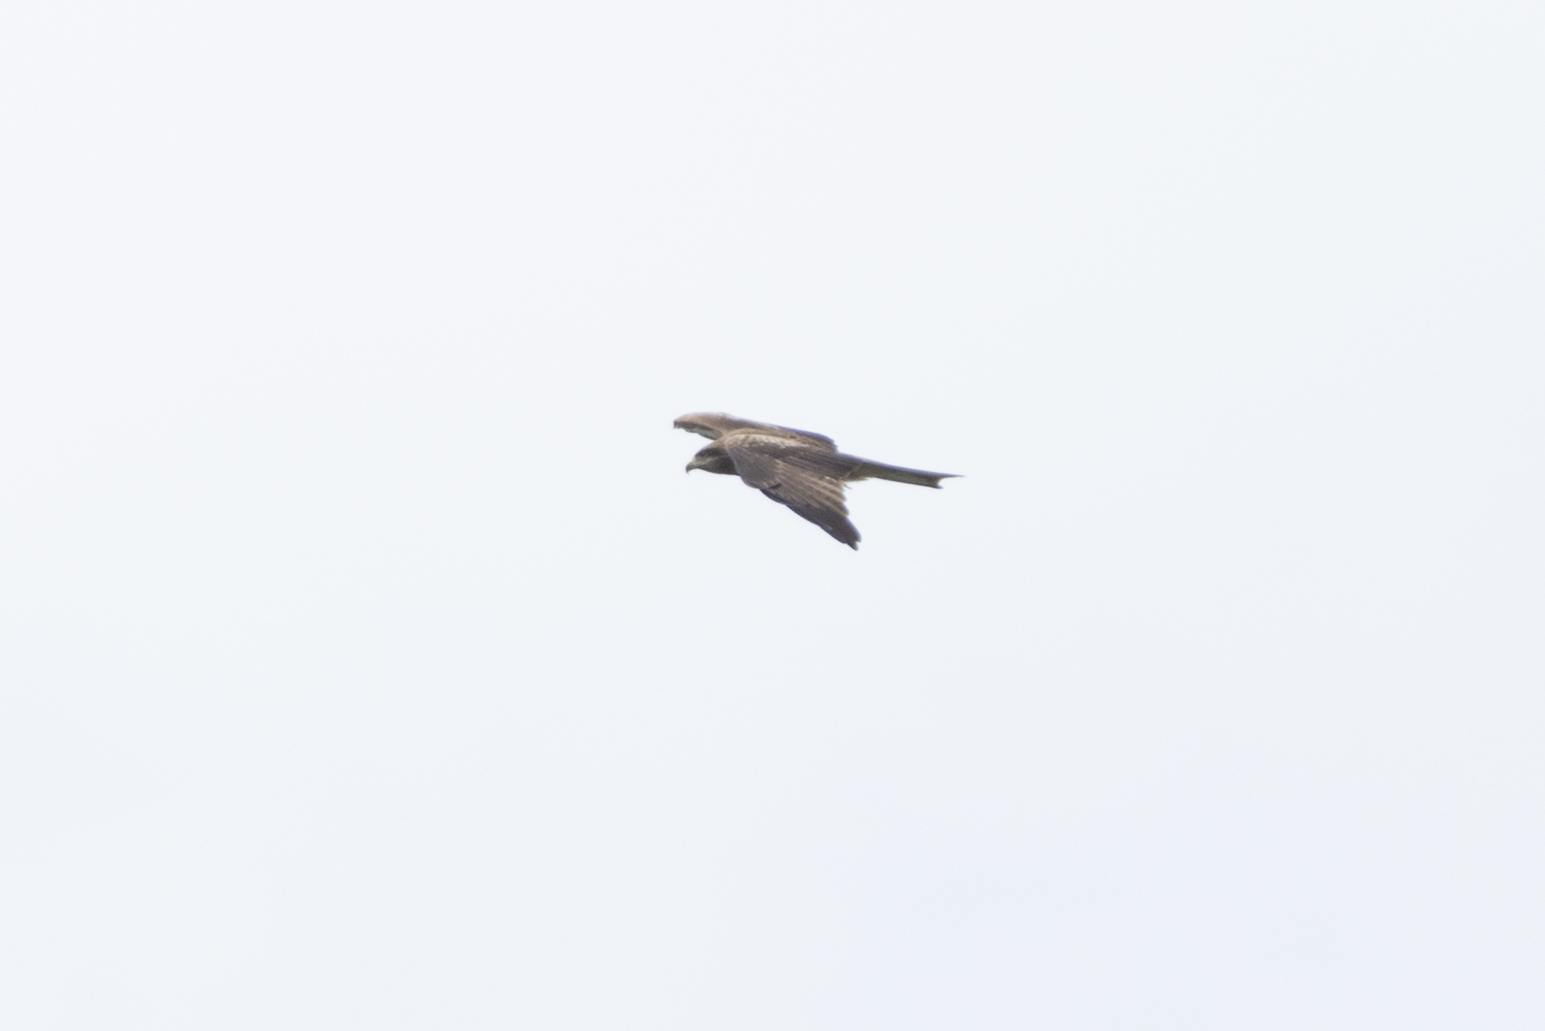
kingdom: Animalia
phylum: Chordata
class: Aves
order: Accipitriformes
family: Accipitridae
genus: Milvus
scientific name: Milvus migrans
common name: Black kite
